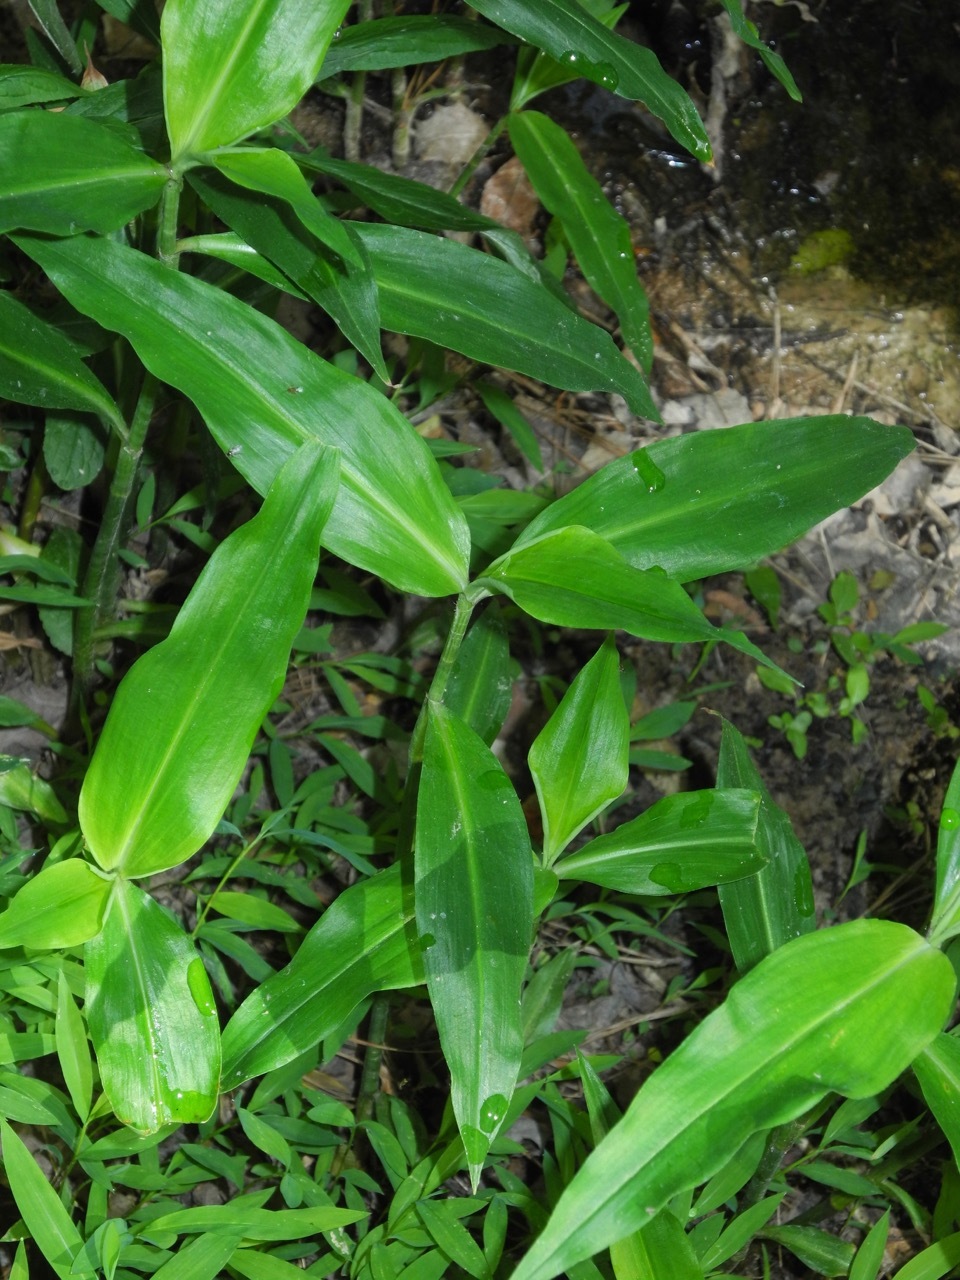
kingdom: Plantae
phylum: Tracheophyta
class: Liliopsida
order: Commelinales
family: Commelinaceae
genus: Commelina
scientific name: Commelina virginica
